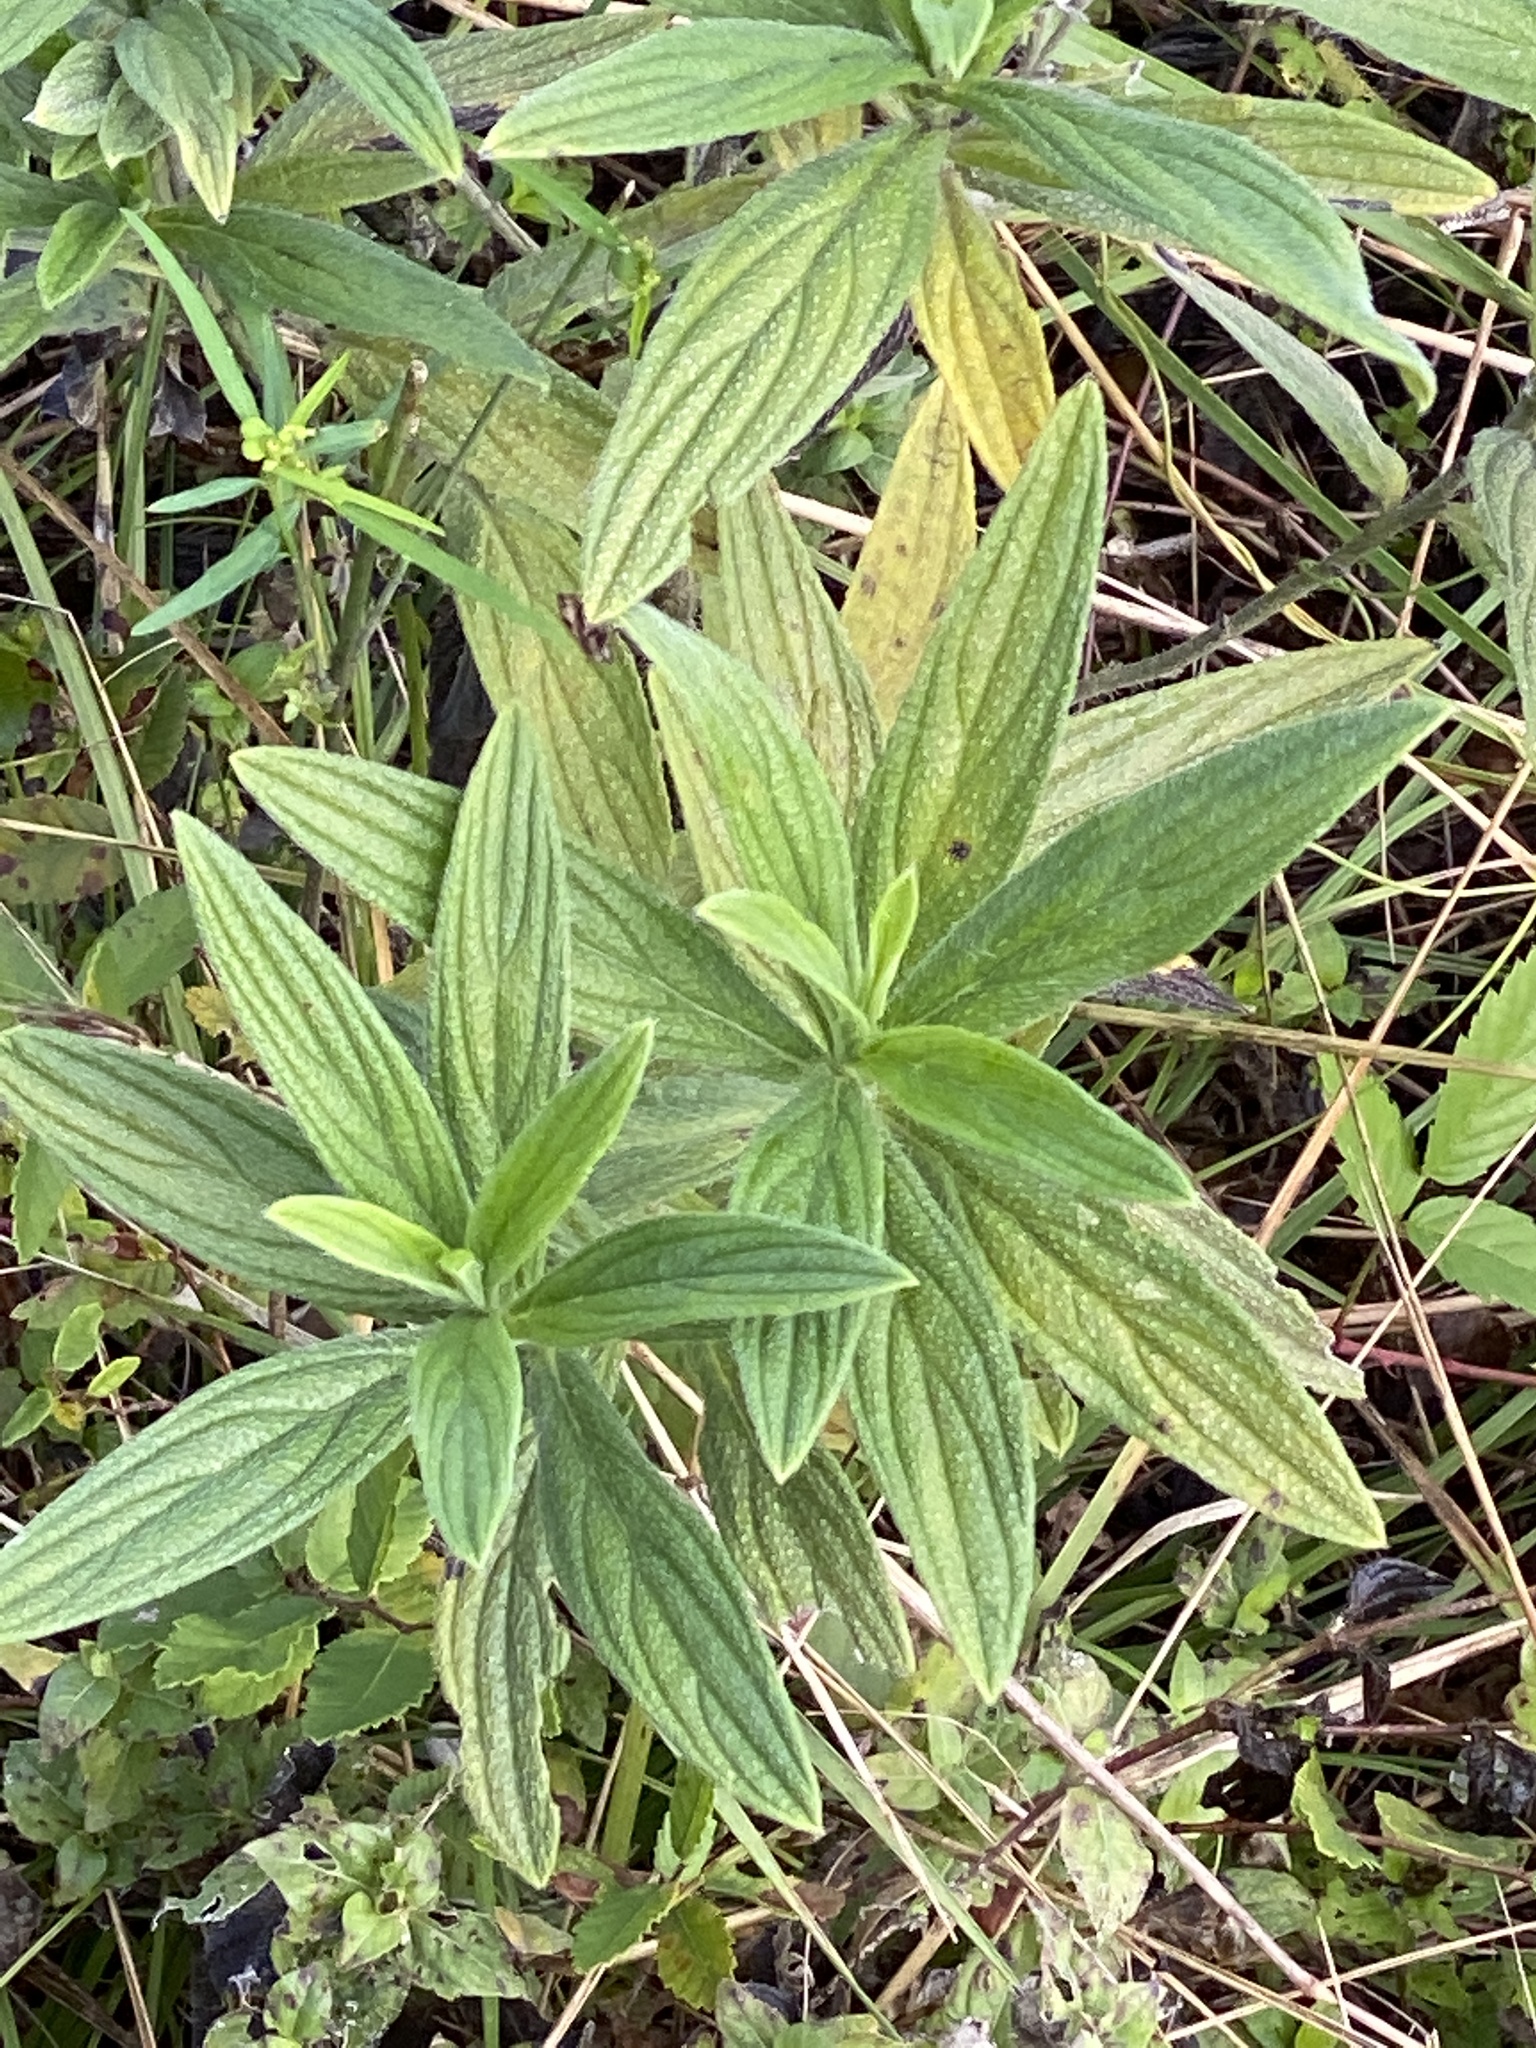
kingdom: Plantae
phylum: Tracheophyta
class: Magnoliopsida
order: Boraginales
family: Boraginaceae
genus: Lithospermum
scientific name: Lithospermum caroliniense
